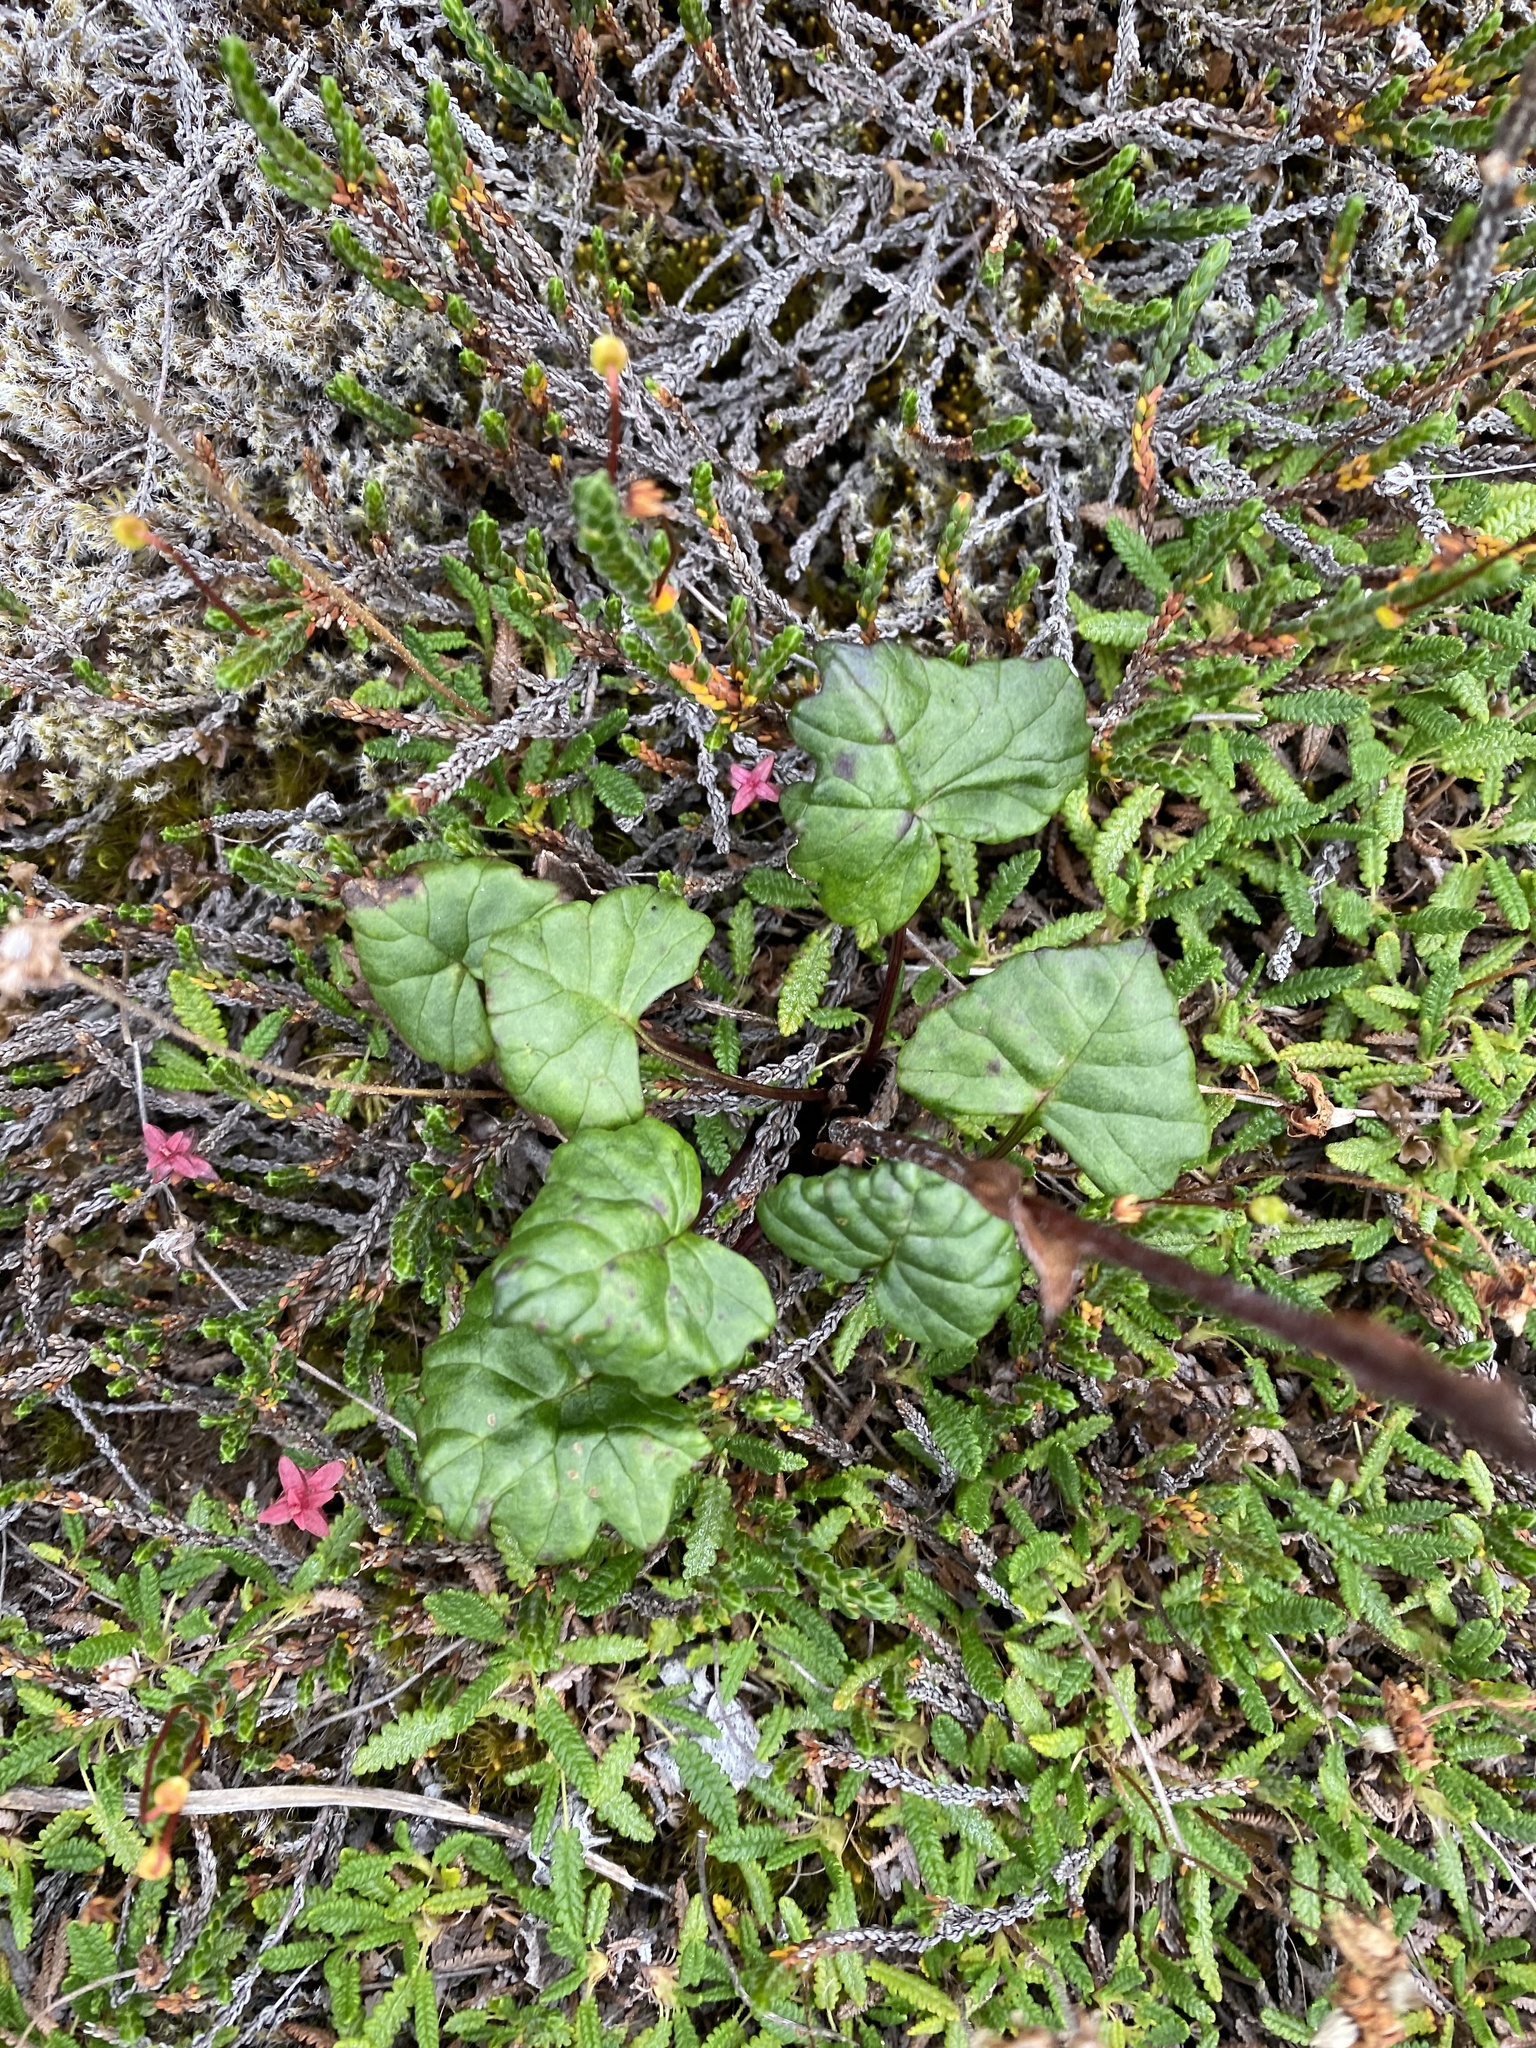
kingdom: Plantae
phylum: Tracheophyta
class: Magnoliopsida
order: Asterales
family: Asteraceae
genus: Endocellion
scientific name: Endocellion glaciale
